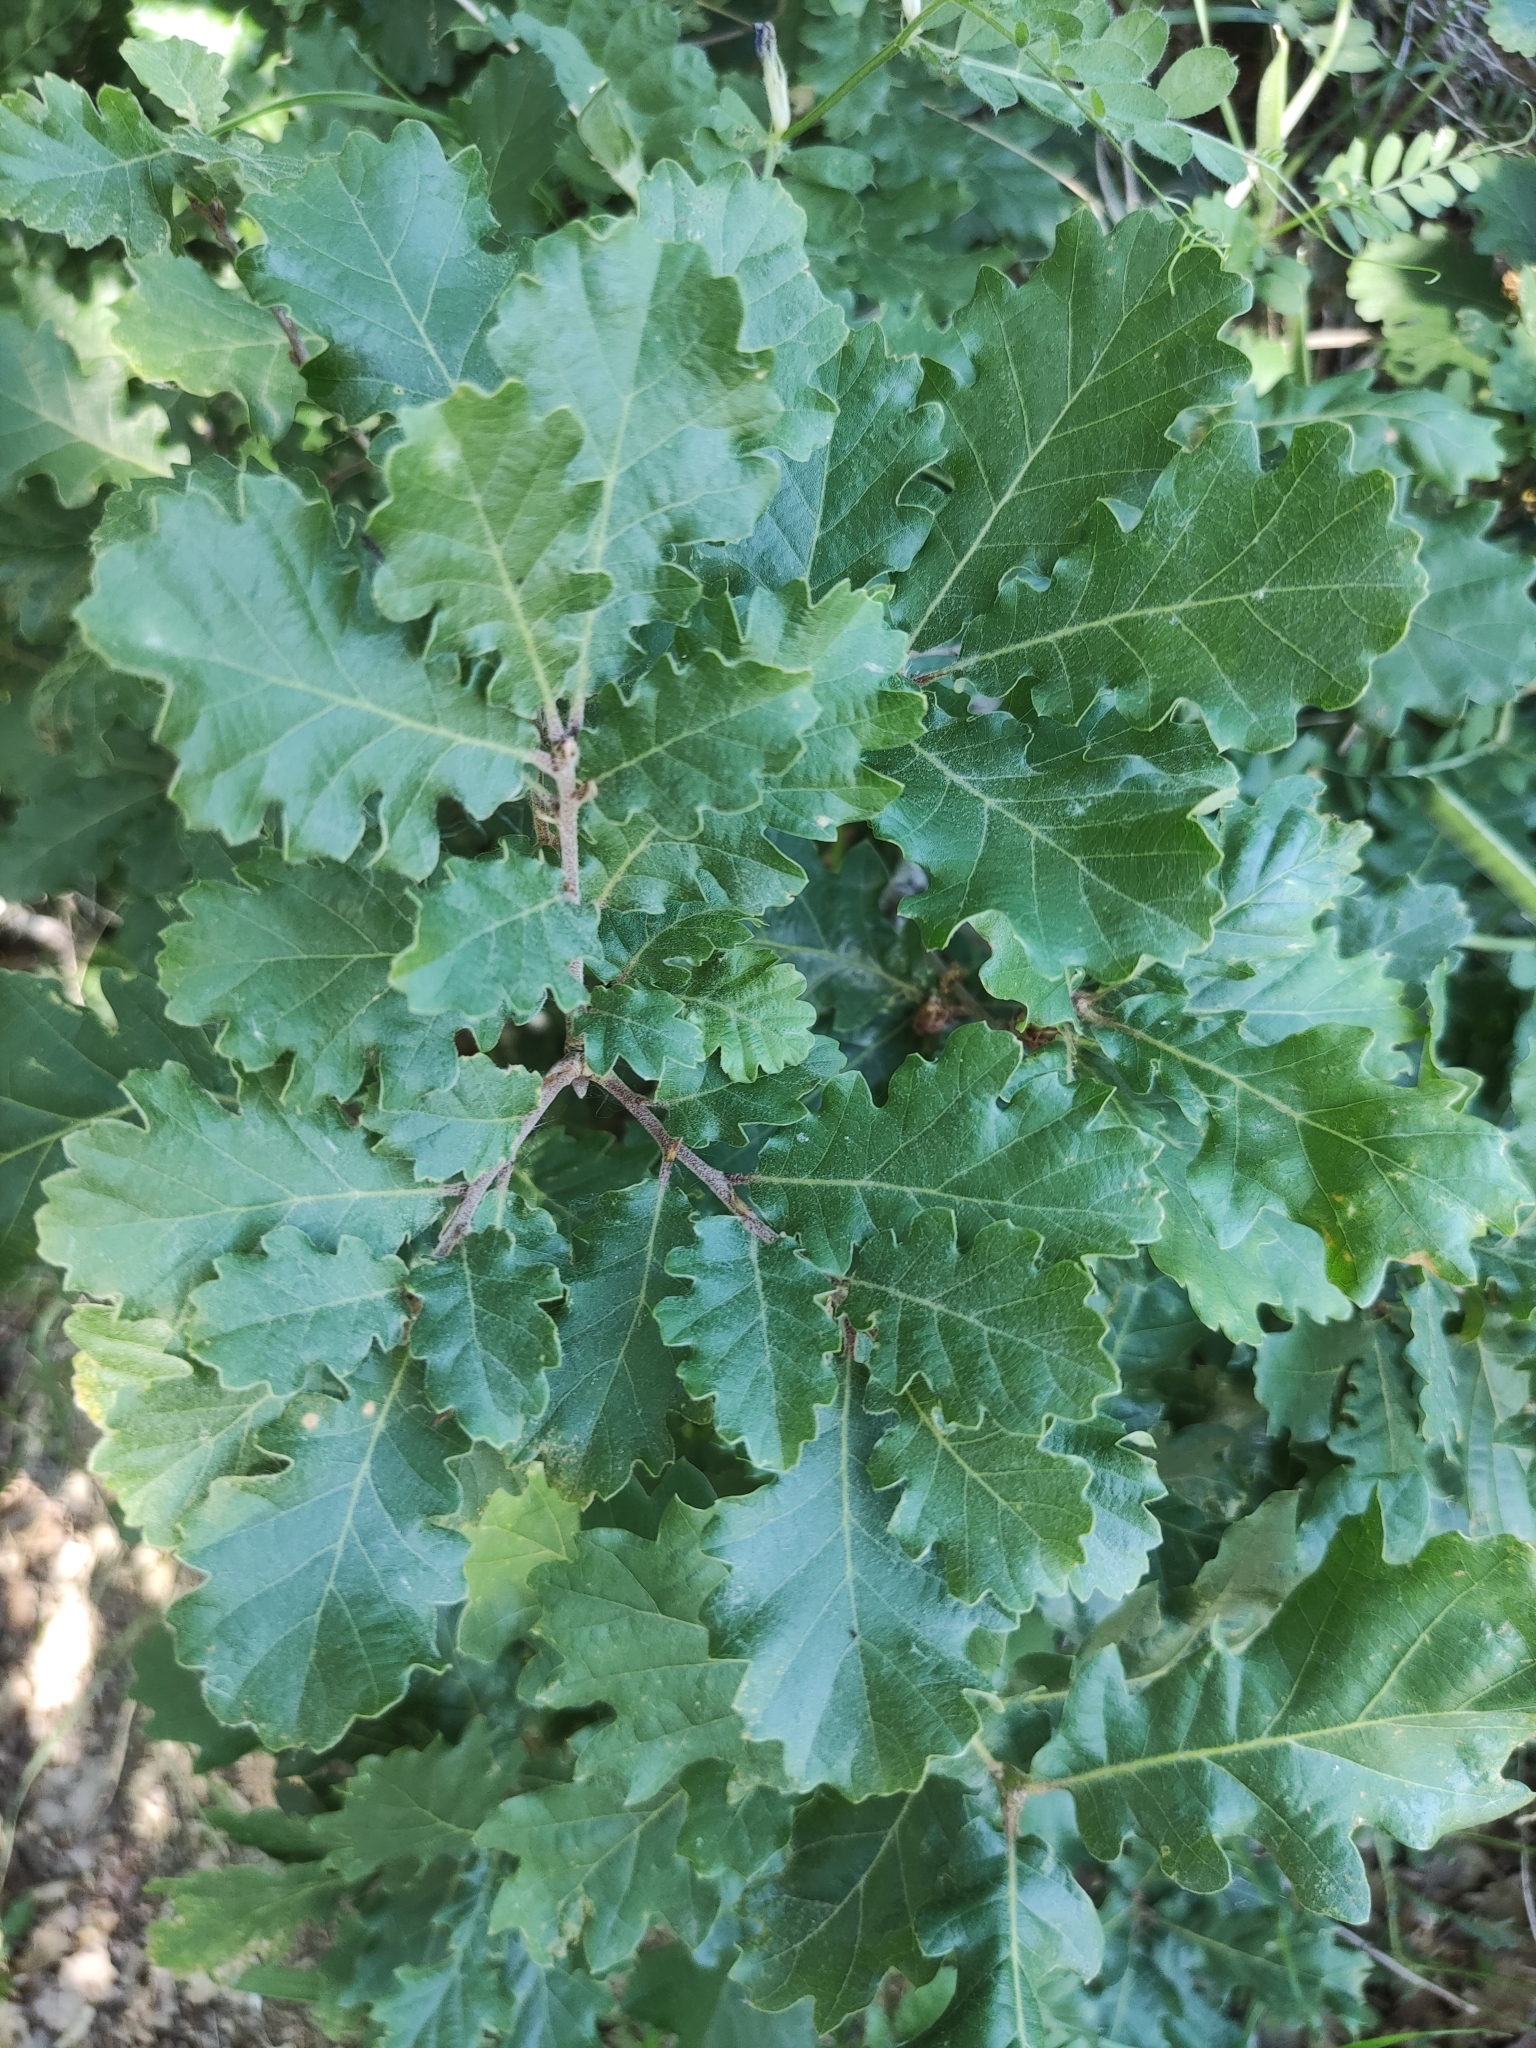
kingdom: Plantae
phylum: Tracheophyta
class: Magnoliopsida
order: Fagales
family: Fagaceae
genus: Quercus
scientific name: Quercus pubescens
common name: Downy oak
